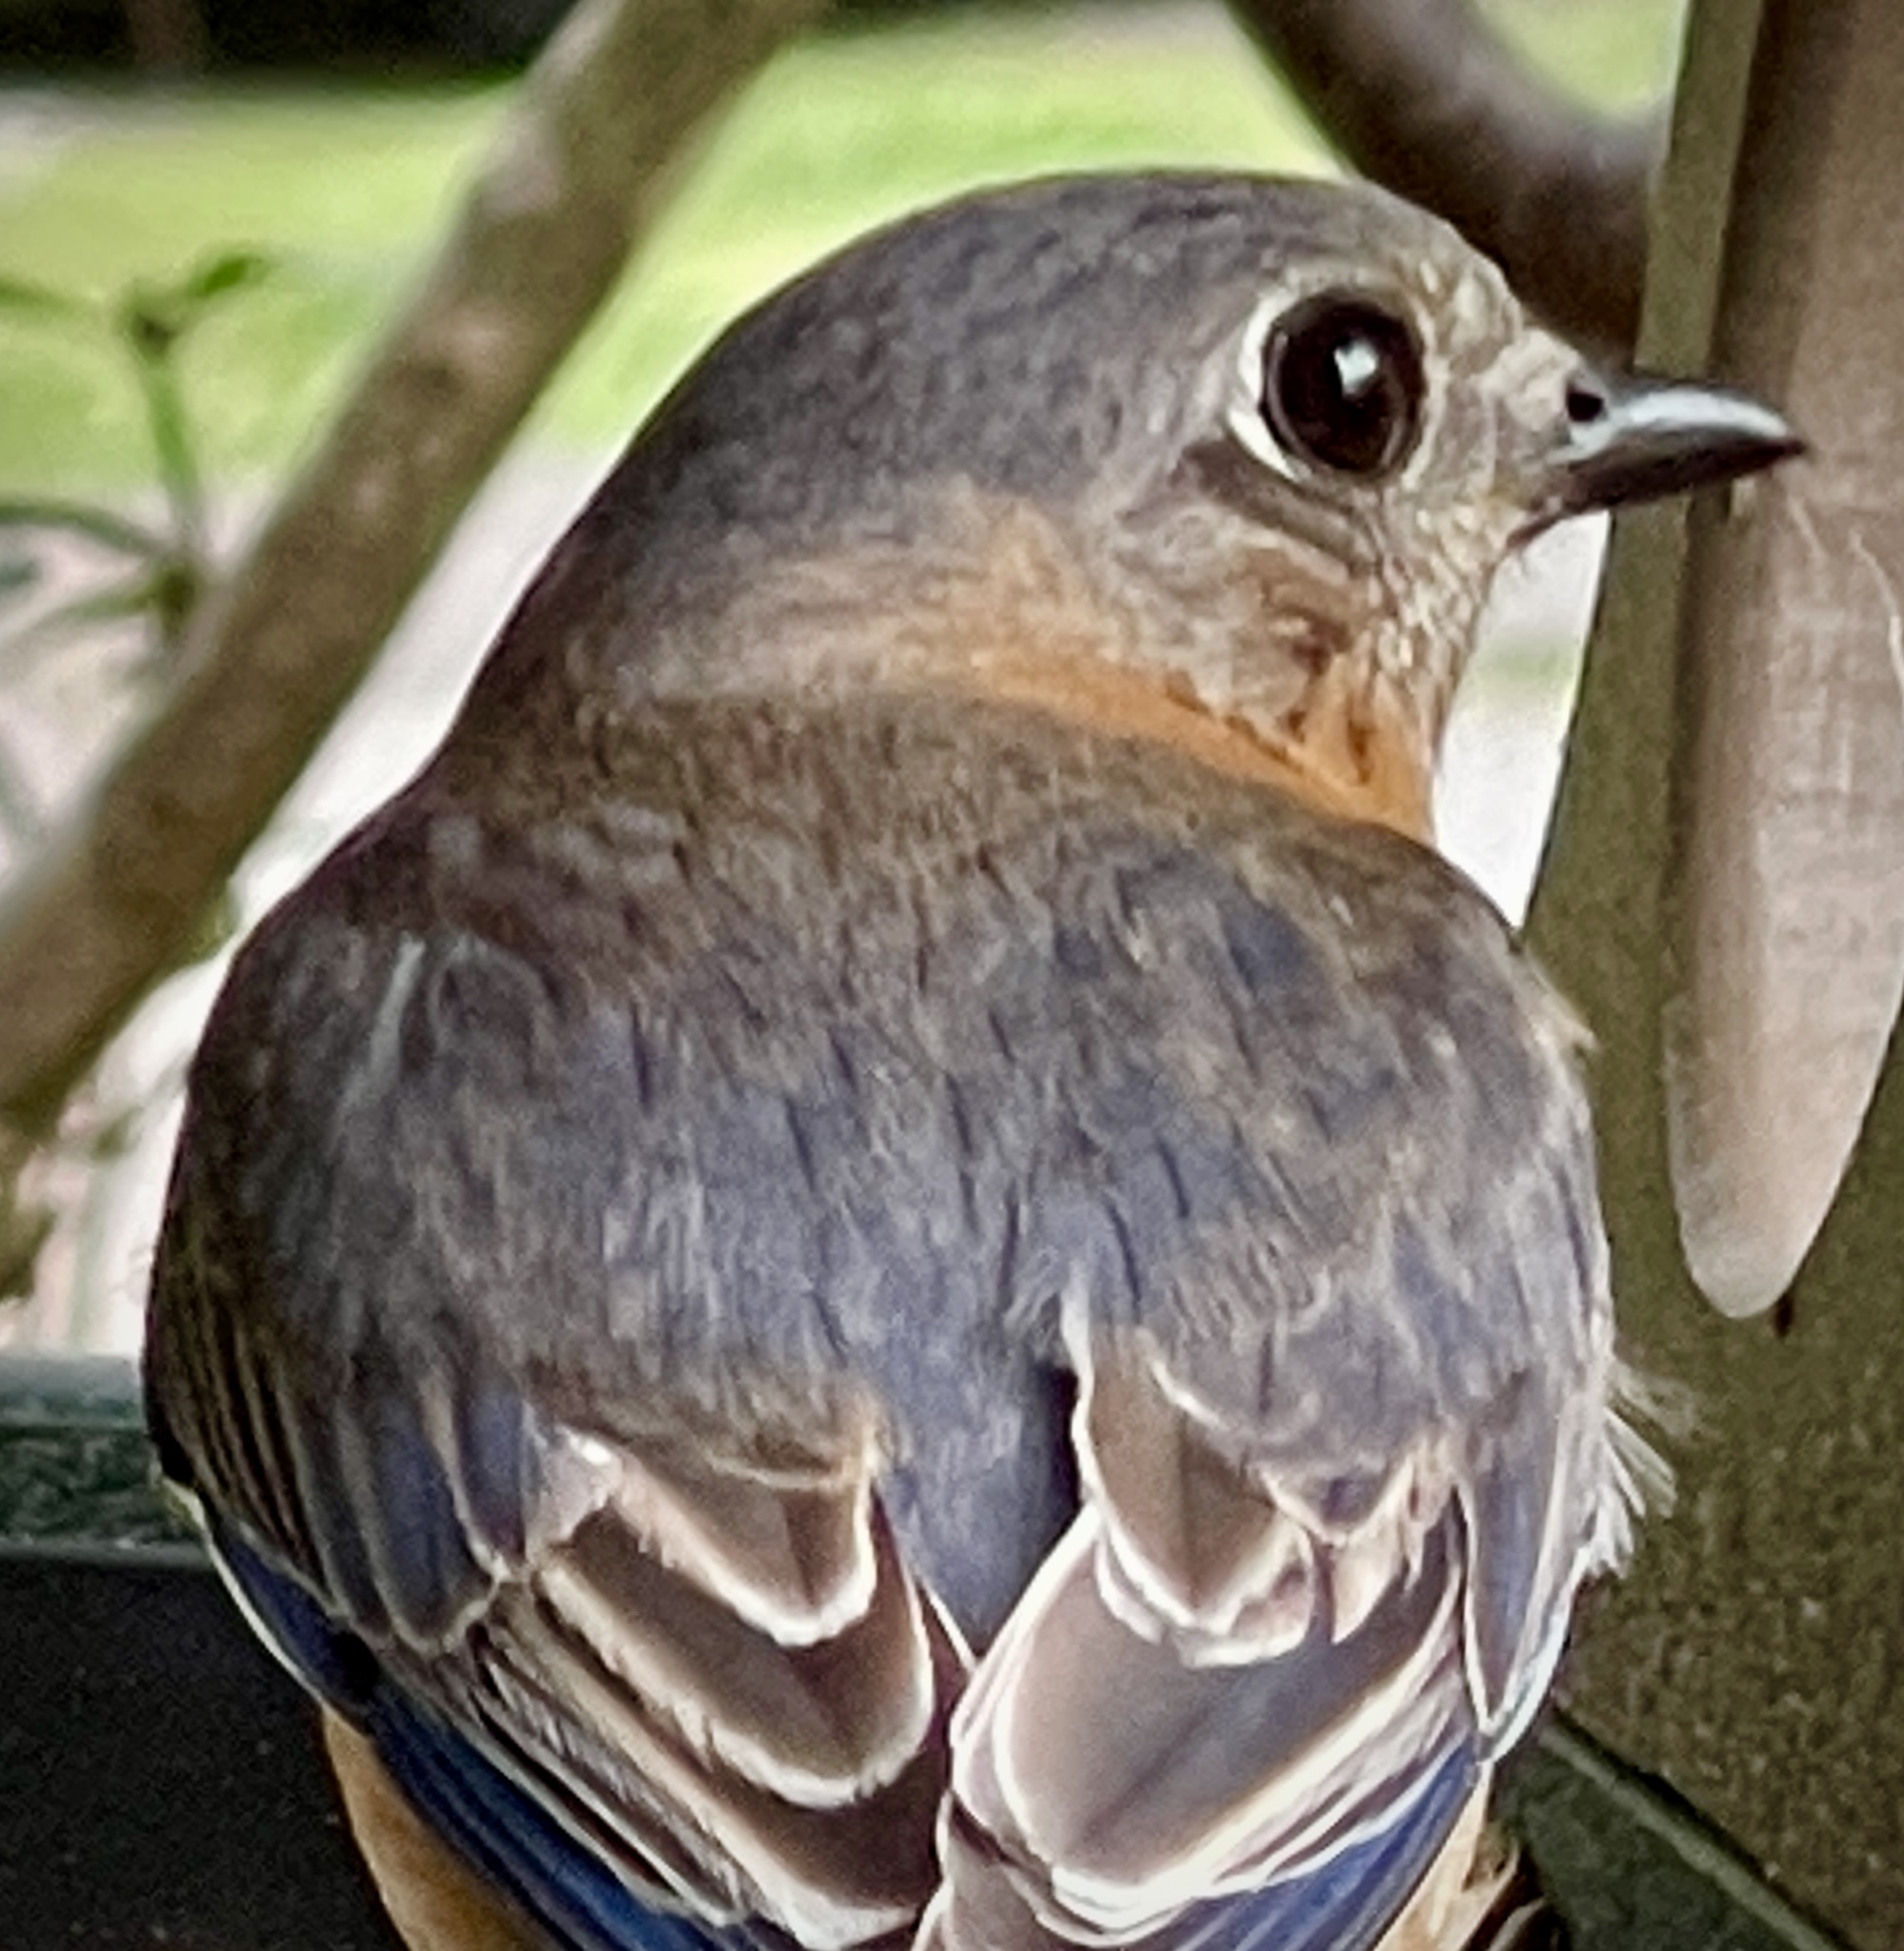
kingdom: Animalia
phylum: Chordata
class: Aves
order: Passeriformes
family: Turdidae
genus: Sialia
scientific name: Sialia sialis
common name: Eastern bluebird
